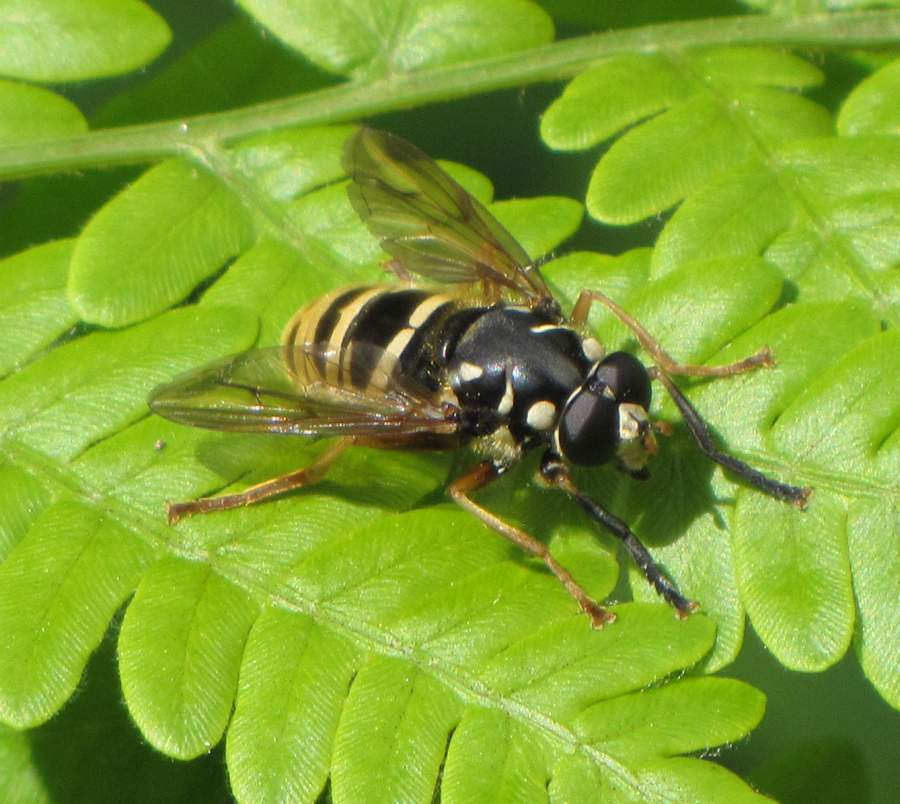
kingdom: Animalia
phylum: Arthropoda
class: Insecta
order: Diptera
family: Syrphidae
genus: Temnostoma
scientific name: Temnostoma excentricum
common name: Black-spotted falsehorn
